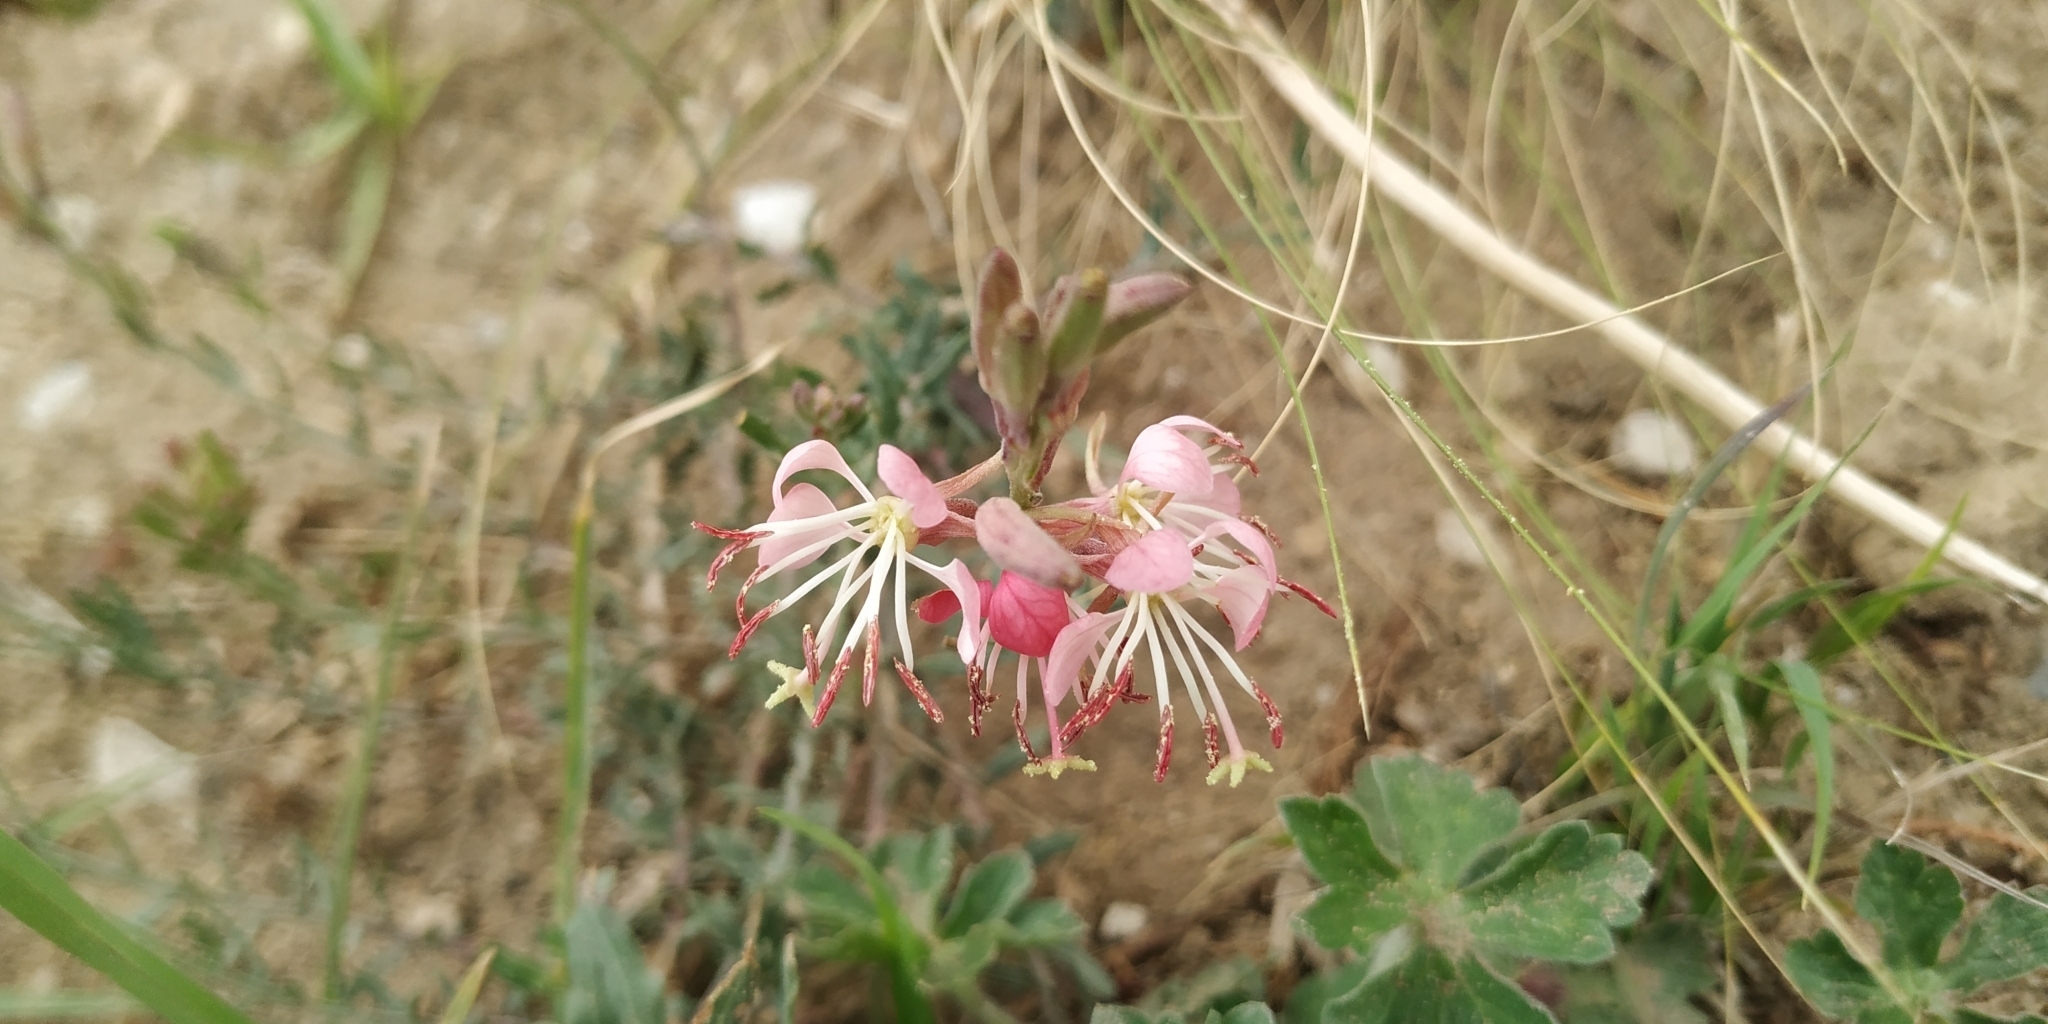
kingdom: Plantae
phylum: Tracheophyta
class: Magnoliopsida
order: Myrtales
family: Onagraceae
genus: Oenothera
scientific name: Oenothera suffrutescens
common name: Scarlet beeblossom
